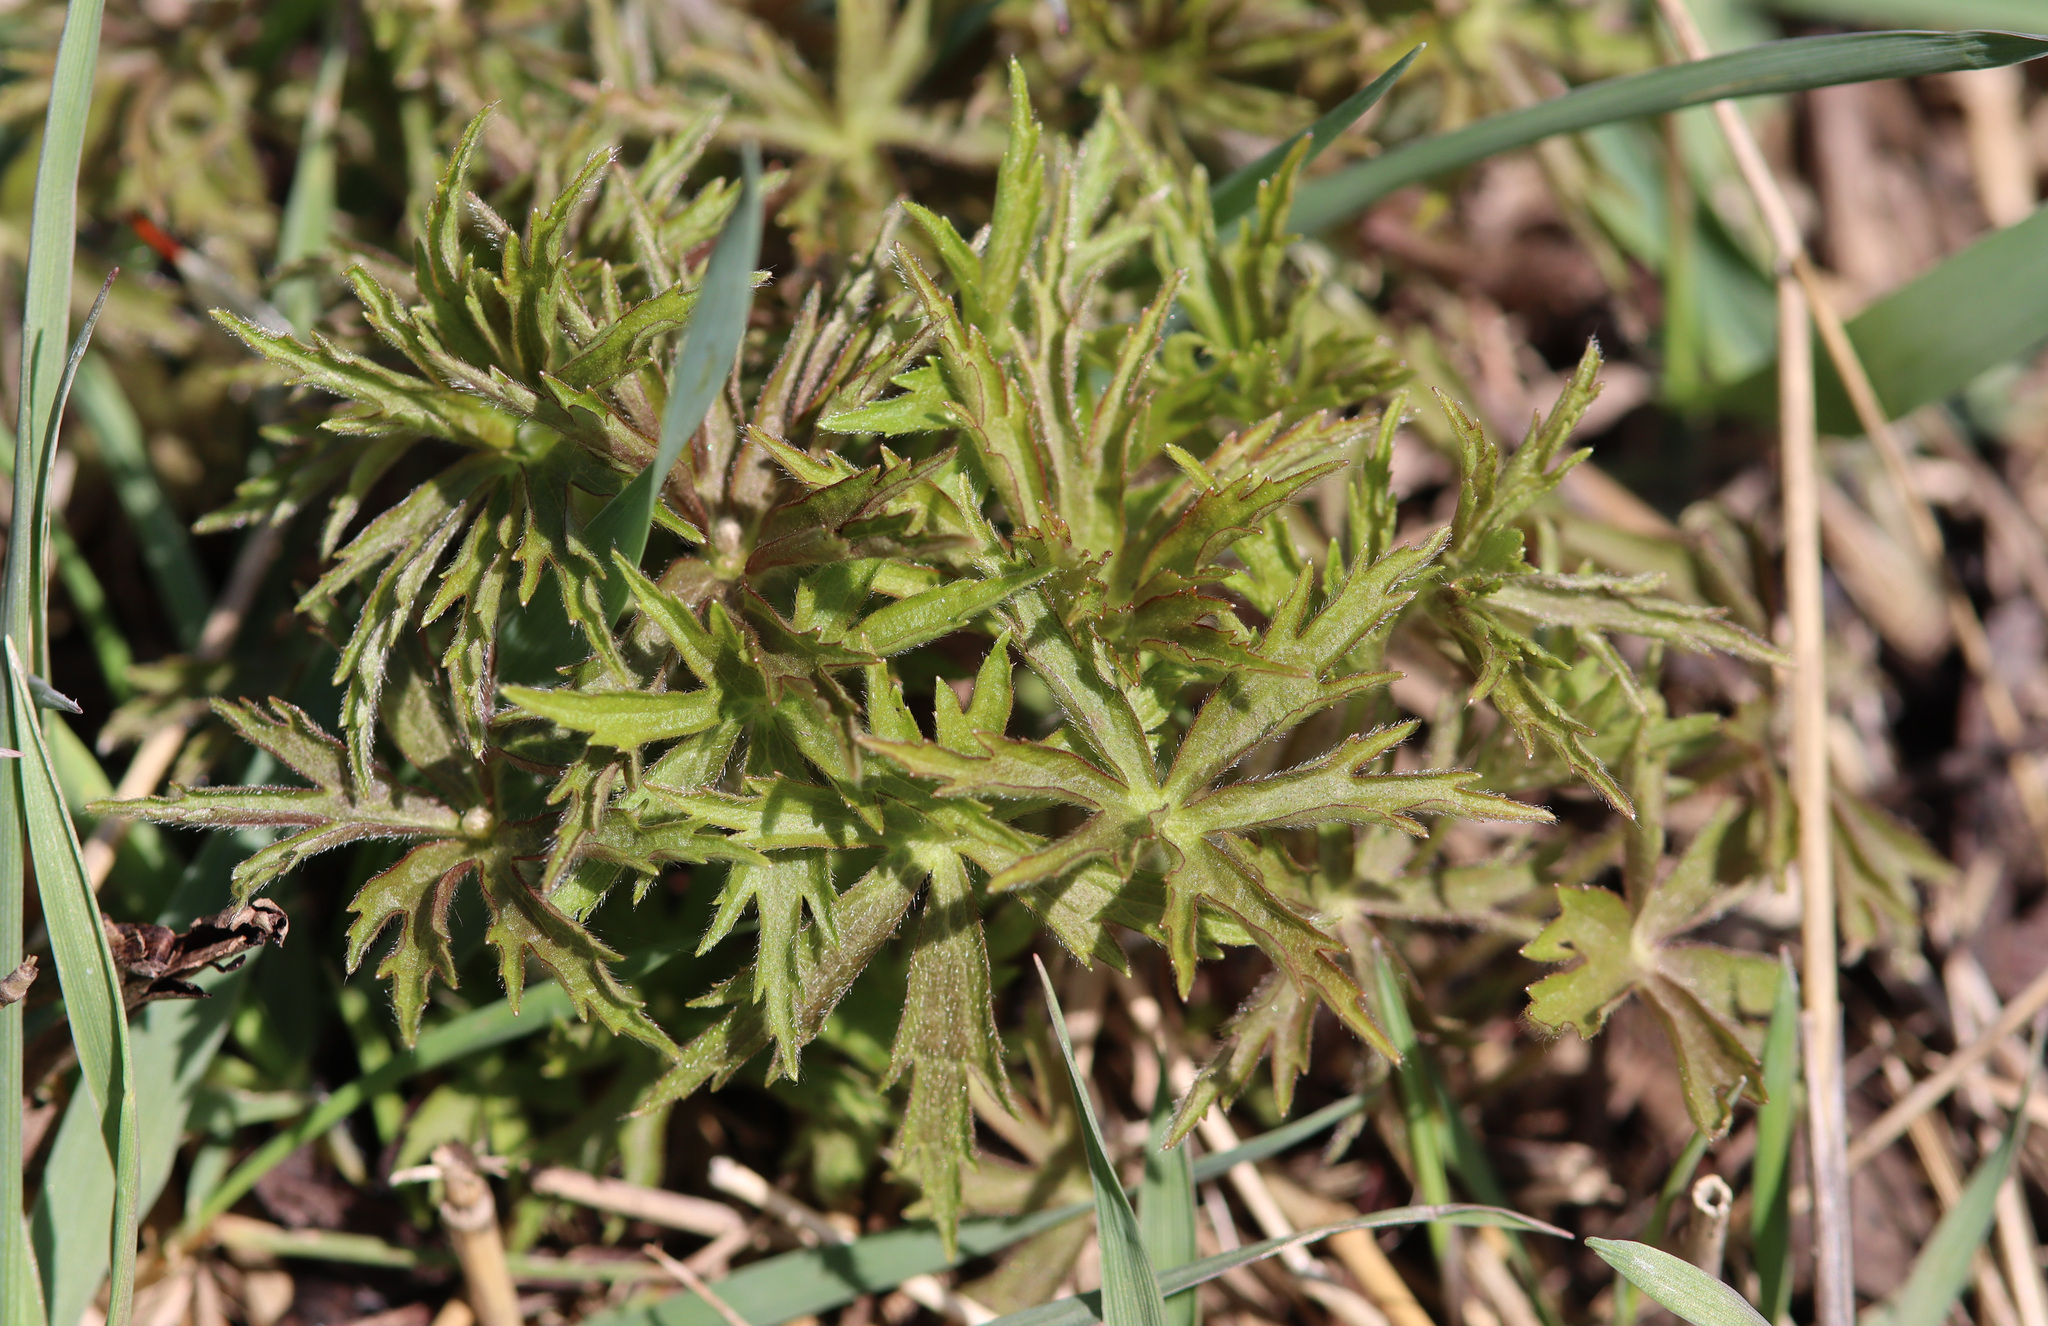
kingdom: Plantae
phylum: Tracheophyta
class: Magnoliopsida
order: Ranunculales
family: Ranunculaceae
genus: Anemonastrum
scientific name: Anemonastrum canadense
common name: Canada anemone
